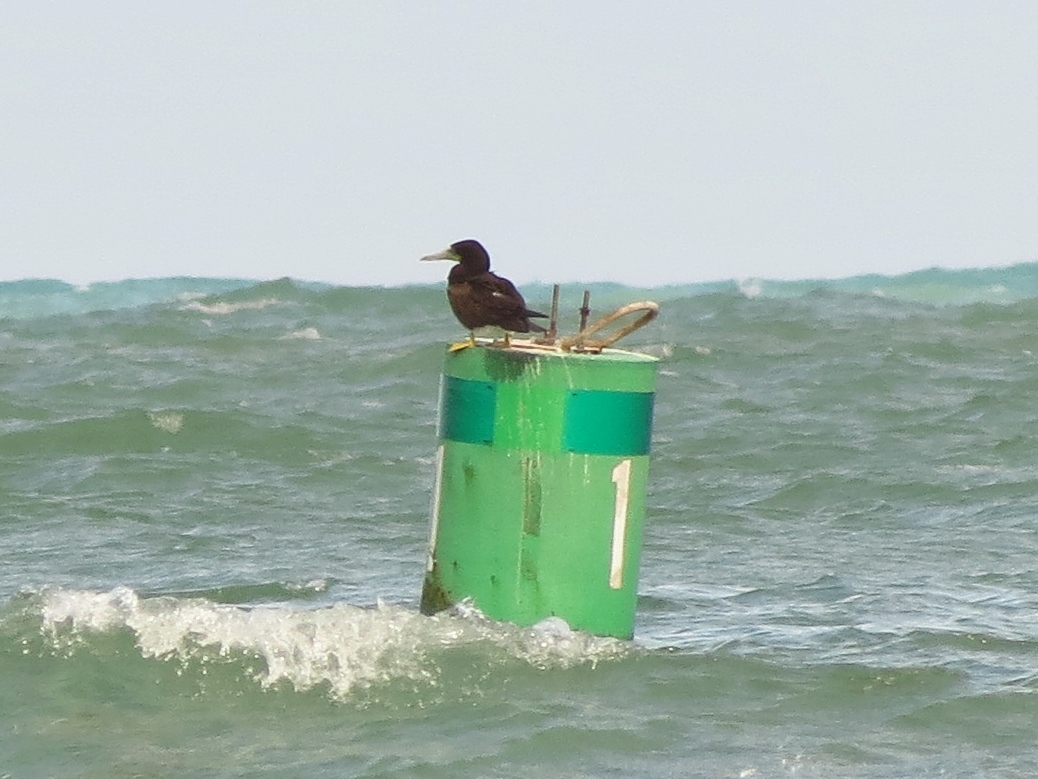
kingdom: Animalia
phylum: Chordata
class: Aves
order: Suliformes
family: Sulidae
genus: Sula
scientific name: Sula leucogaster
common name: Brown booby
